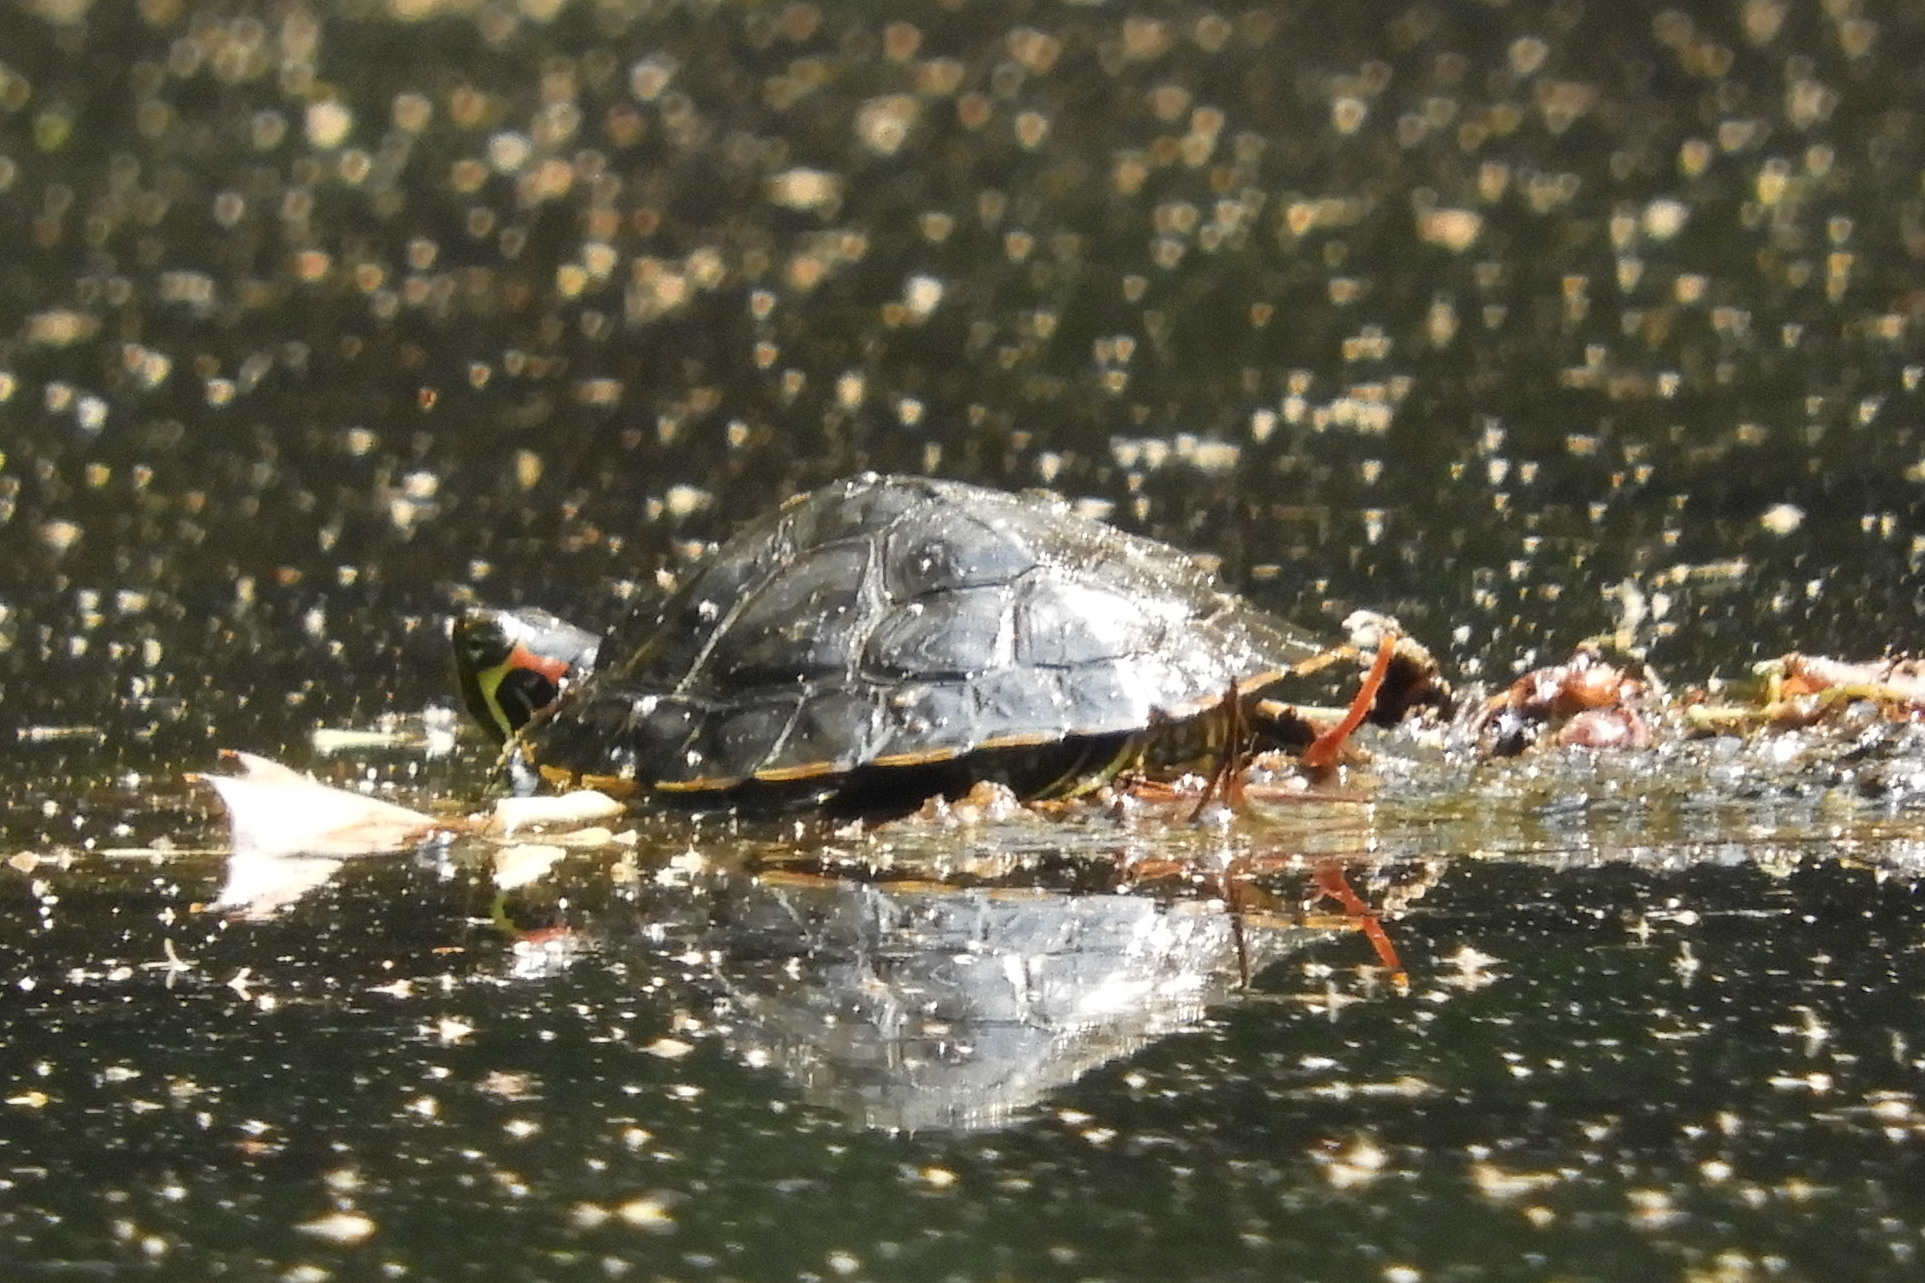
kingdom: Animalia
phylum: Chordata
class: Testudines
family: Emydidae
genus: Trachemys
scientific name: Trachemys scripta
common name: Slider
